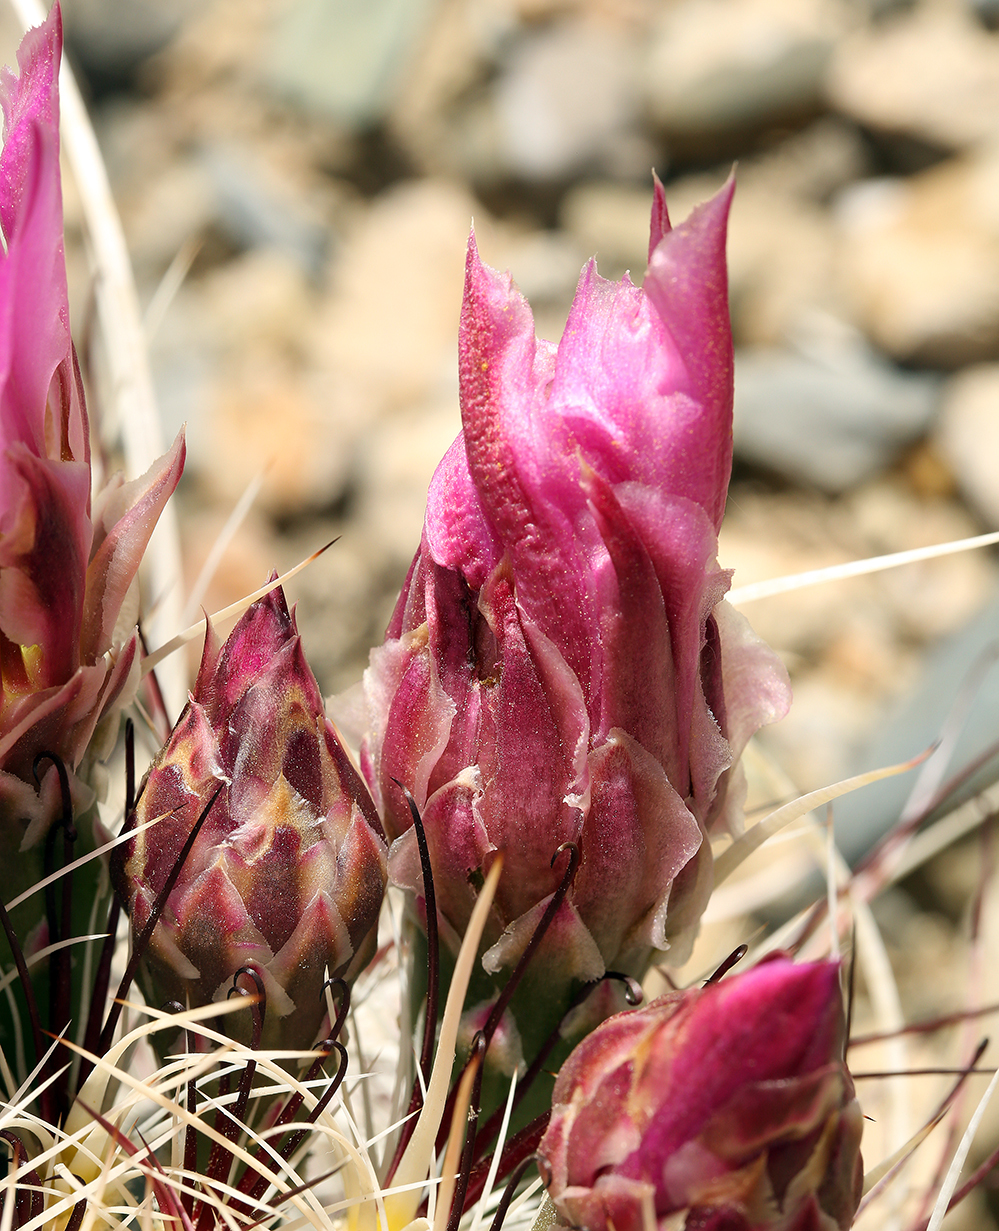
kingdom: Plantae
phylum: Tracheophyta
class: Magnoliopsida
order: Caryophyllales
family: Cactaceae
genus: Sclerocactus
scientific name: Sclerocactus polyancistrus
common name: Mohave fishhook cactus
